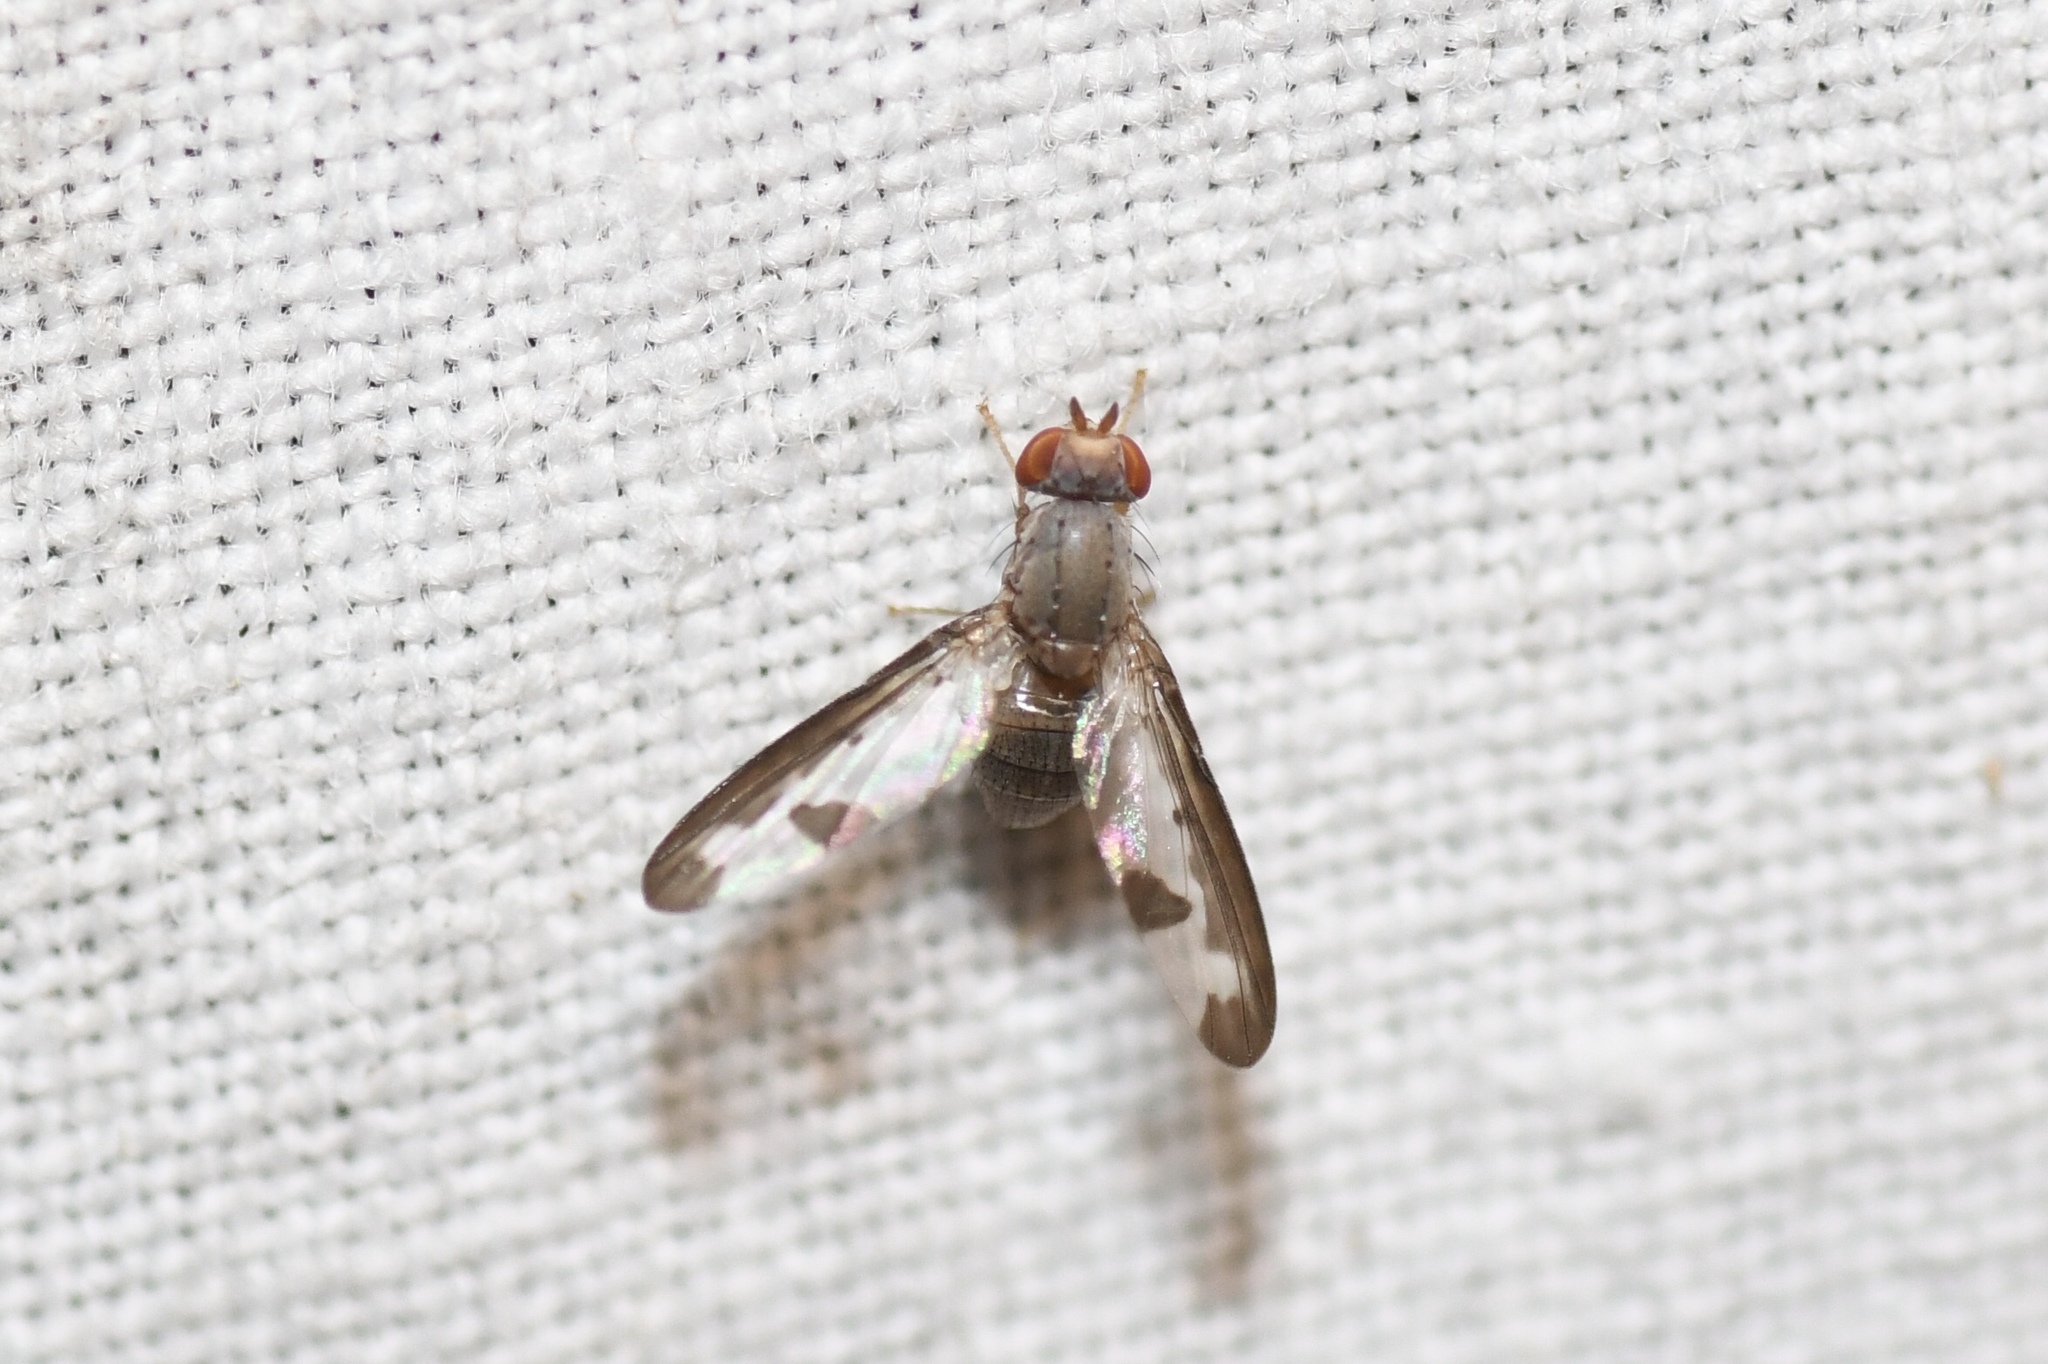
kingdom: Animalia
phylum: Arthropoda
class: Insecta
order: Diptera
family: Pallopteridae
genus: Palloptera
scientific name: Palloptera setosa
